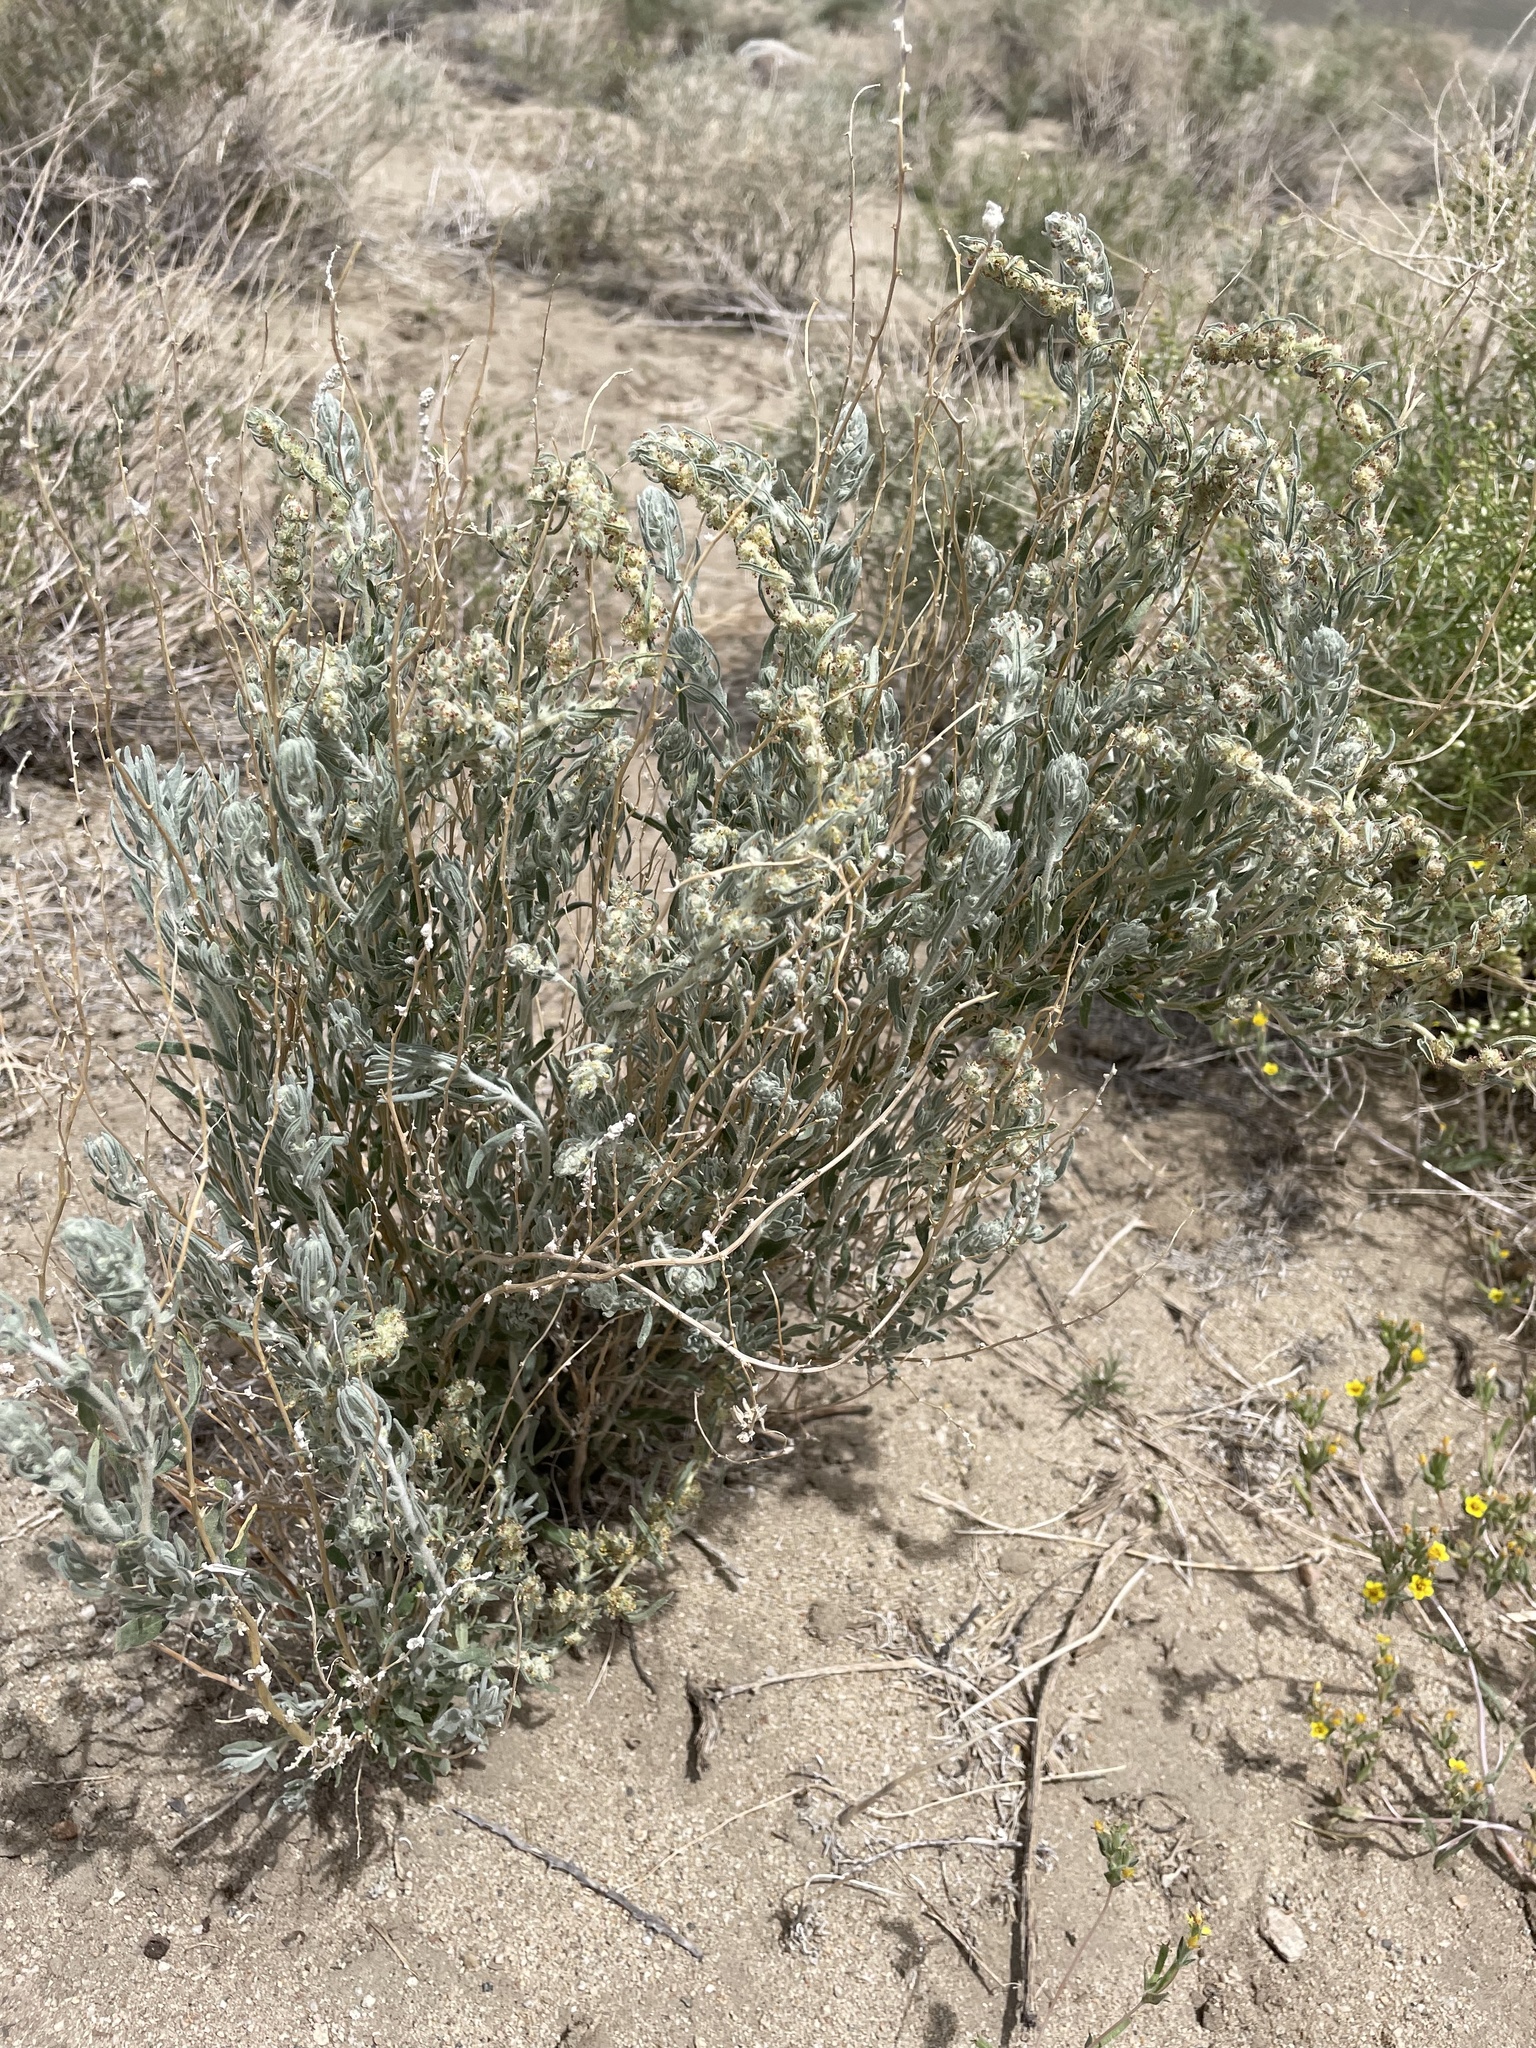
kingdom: Plantae
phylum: Tracheophyta
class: Magnoliopsida
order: Caryophyllales
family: Amaranthaceae
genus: Krascheninnikovia
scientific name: Krascheninnikovia lanata
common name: Winterfat
